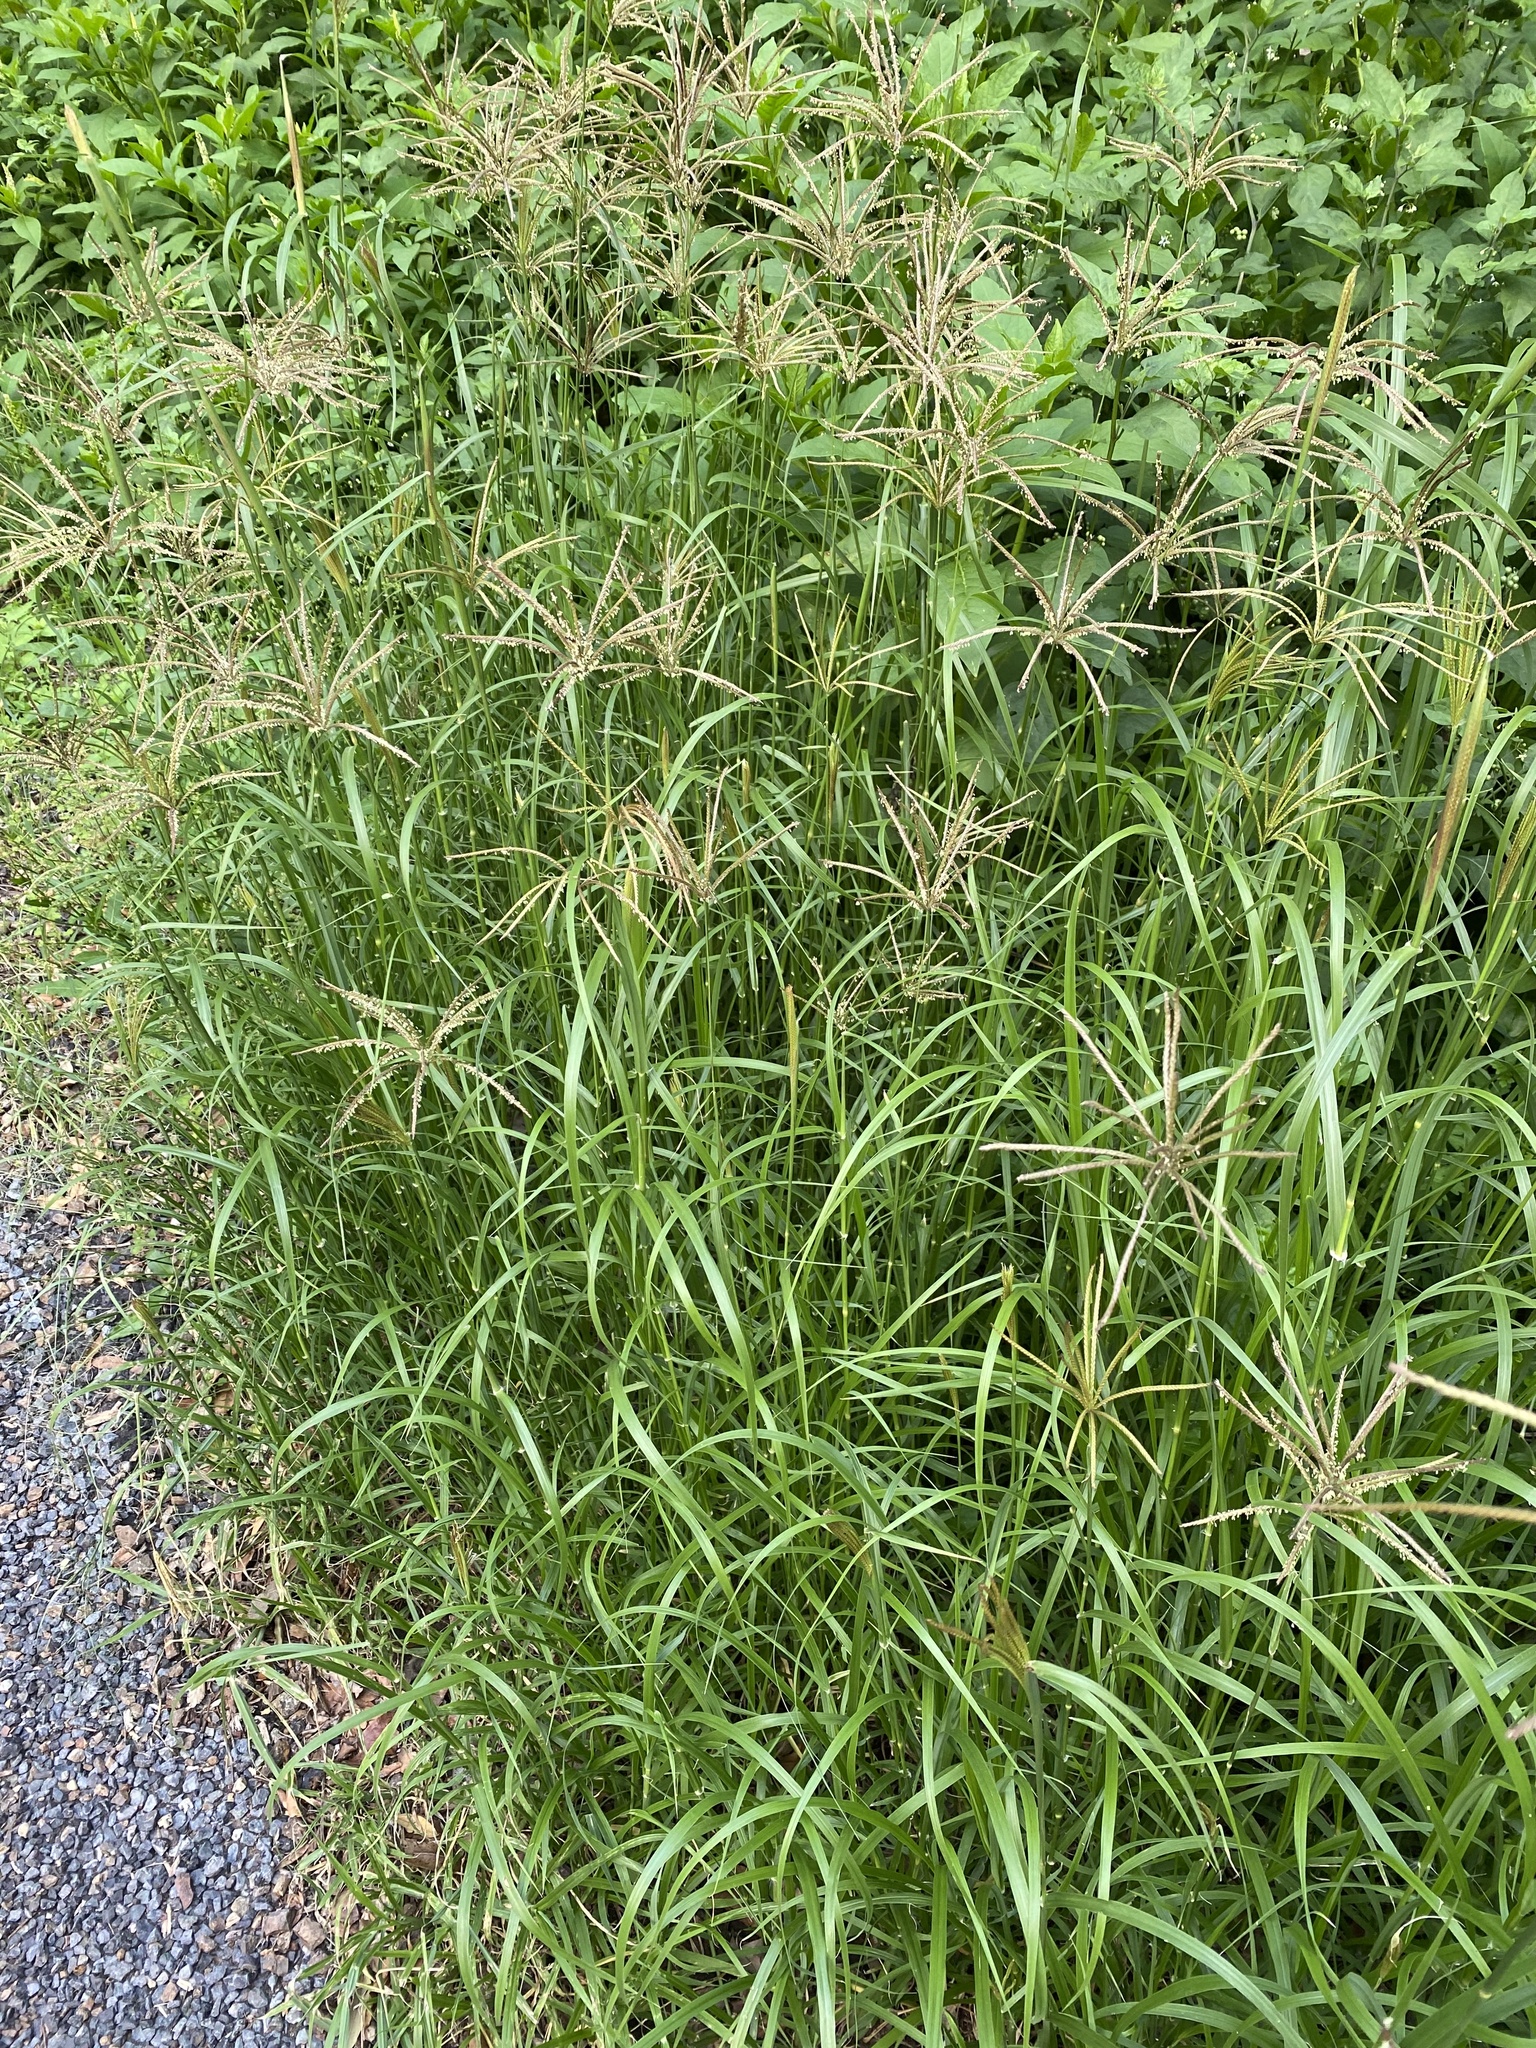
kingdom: Plantae
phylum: Tracheophyta
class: Liliopsida
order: Poales
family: Poaceae
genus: Chloris
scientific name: Chloris gayana
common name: Rhodes grass
